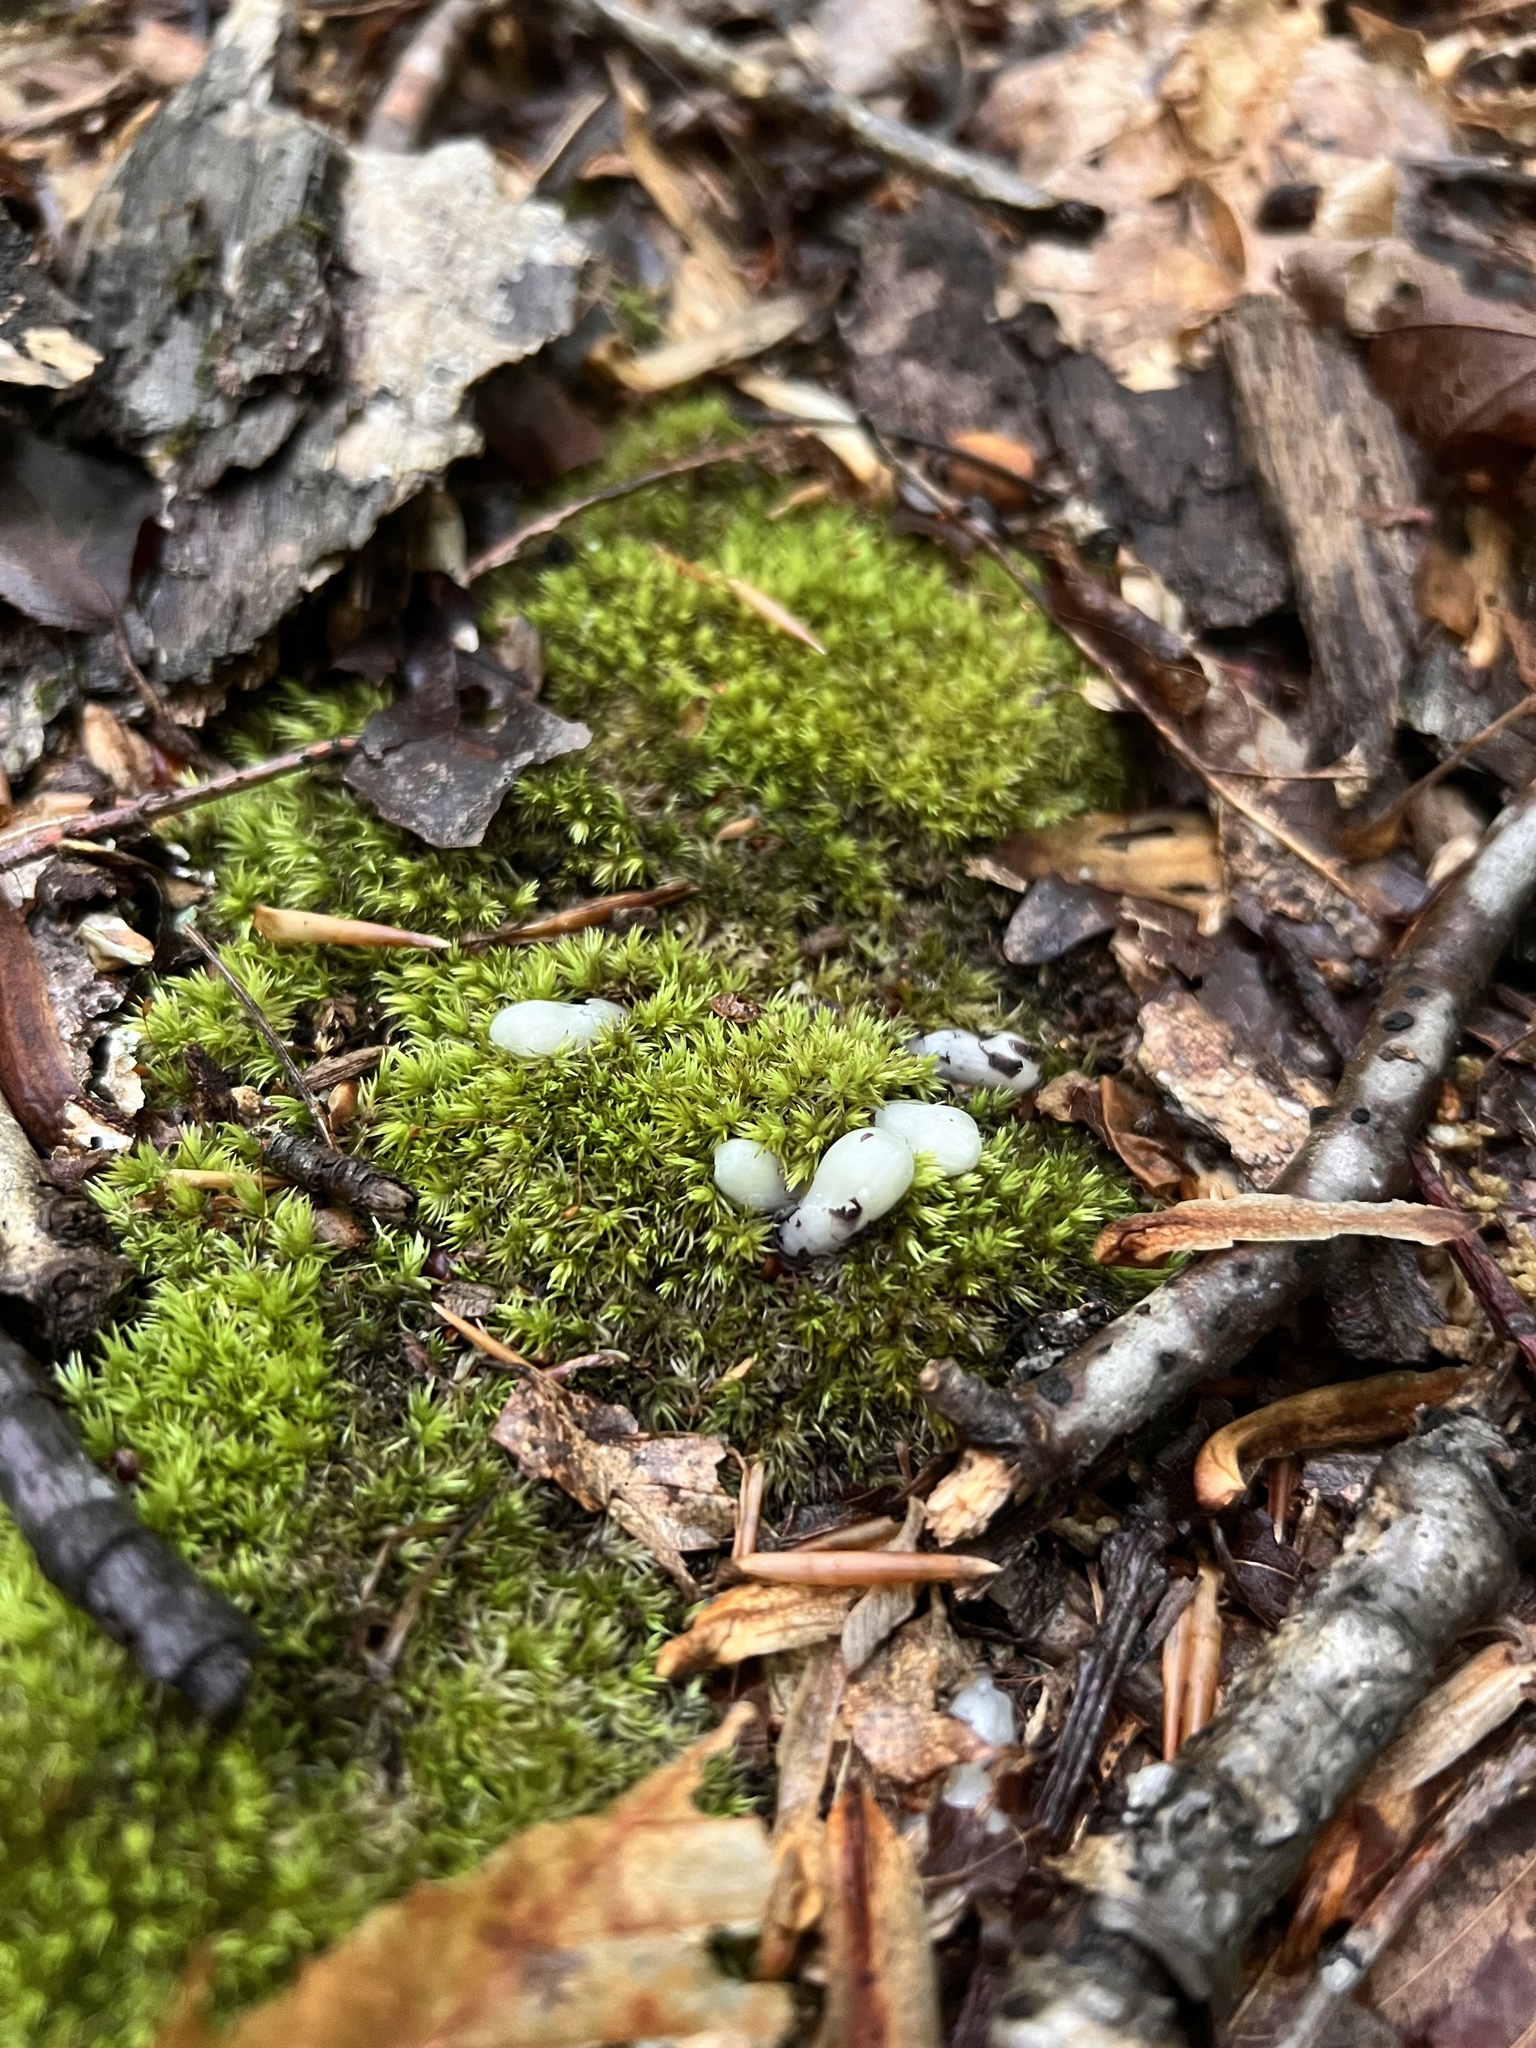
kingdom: Plantae
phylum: Tracheophyta
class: Magnoliopsida
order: Ericales
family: Ericaceae
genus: Monotropa
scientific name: Monotropa uniflora
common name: Convulsion root
